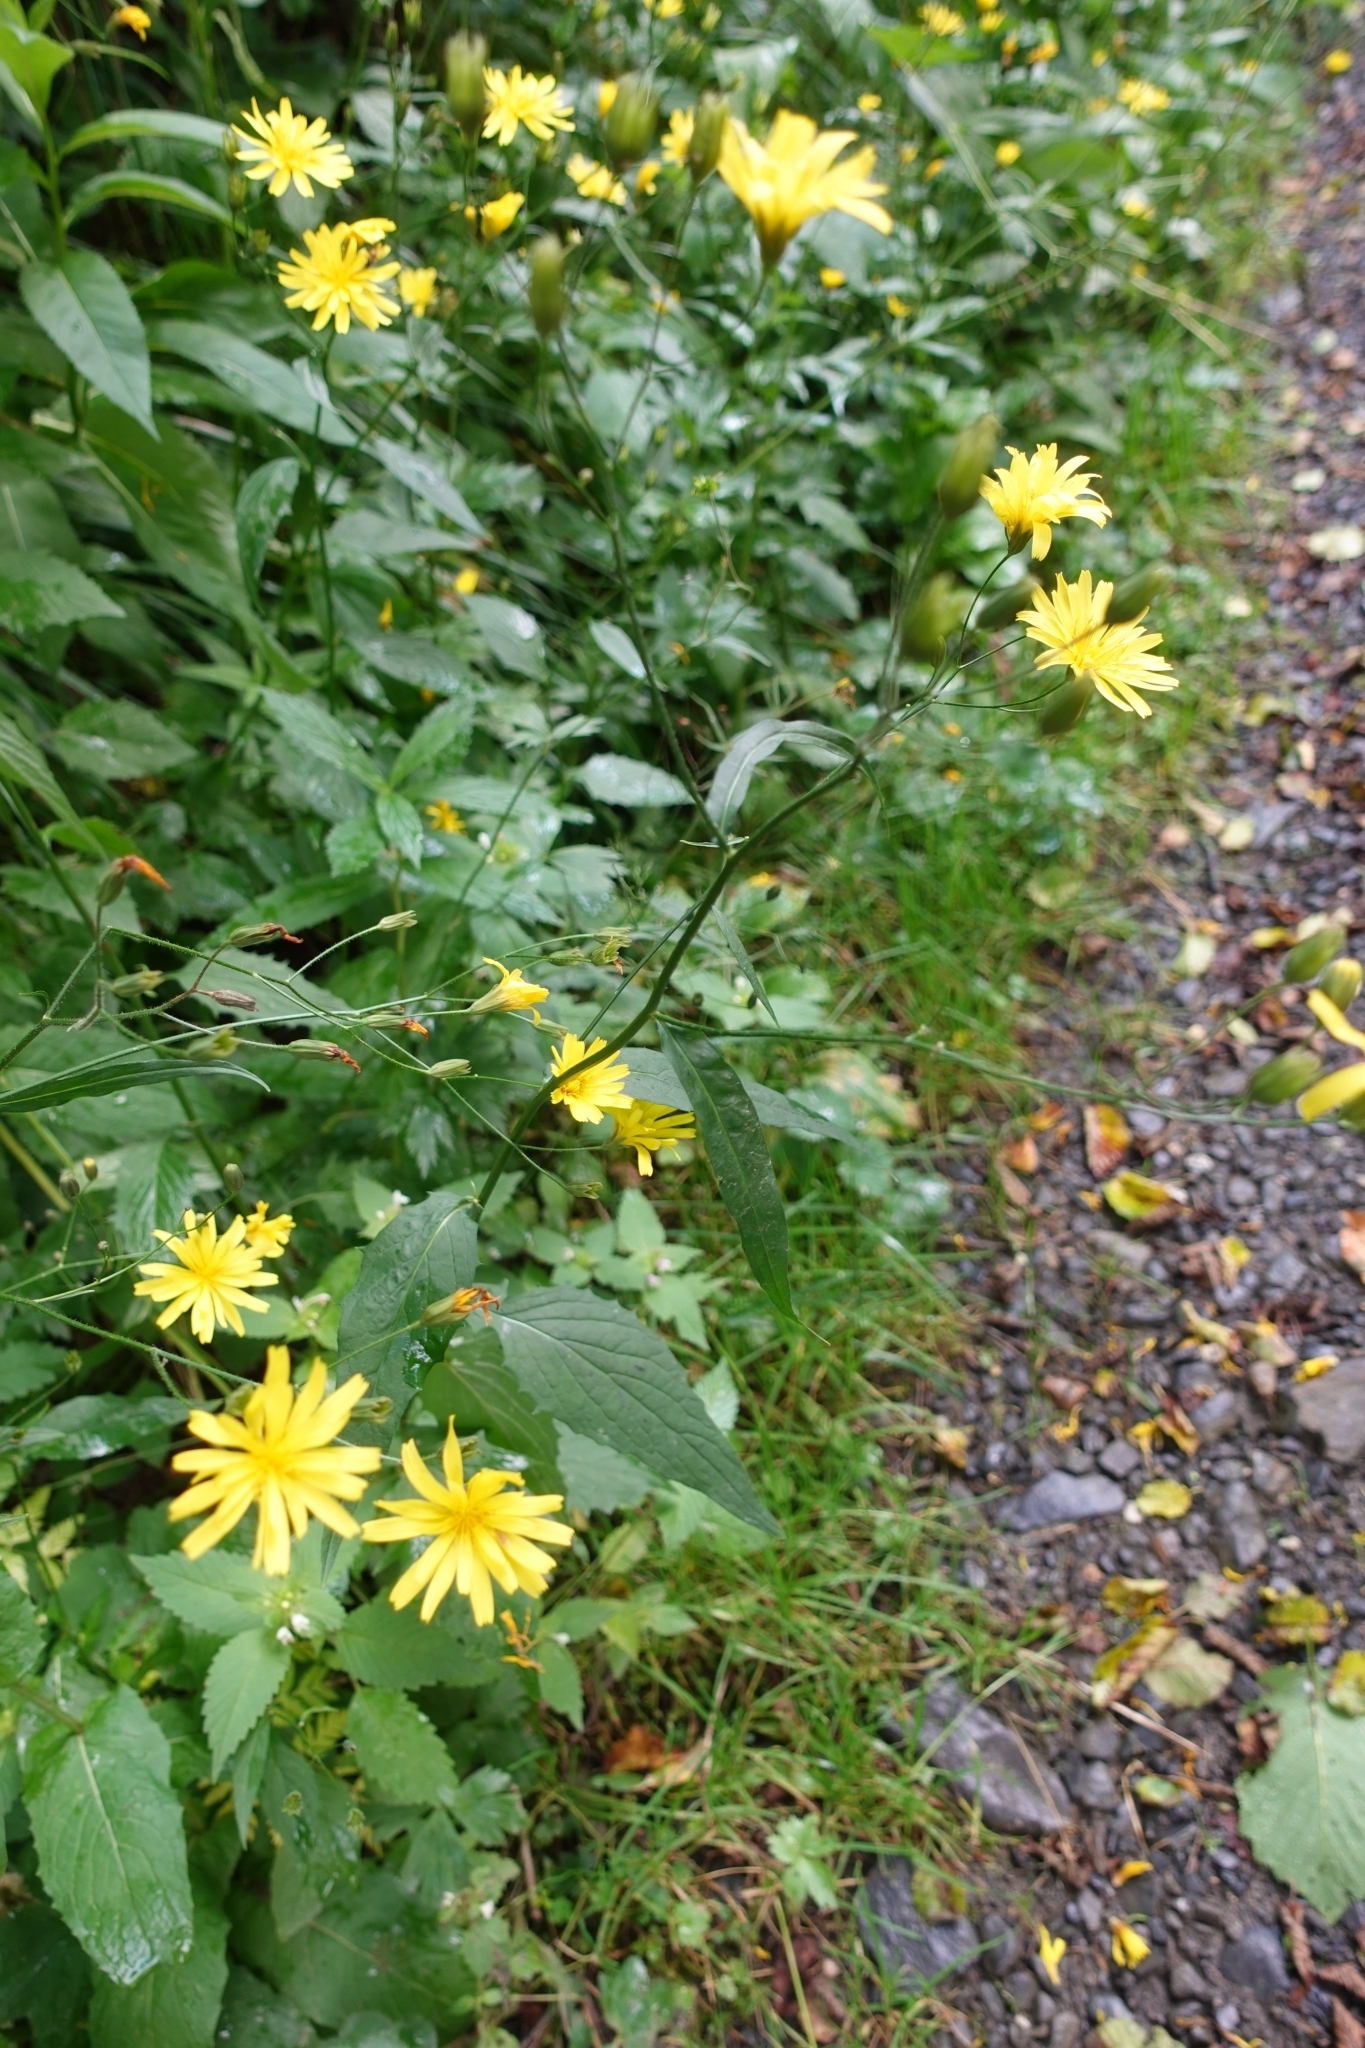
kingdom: Plantae
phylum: Tracheophyta
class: Magnoliopsida
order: Asterales
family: Asteraceae
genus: Lapsana
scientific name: Lapsana communis
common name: Nipplewort
